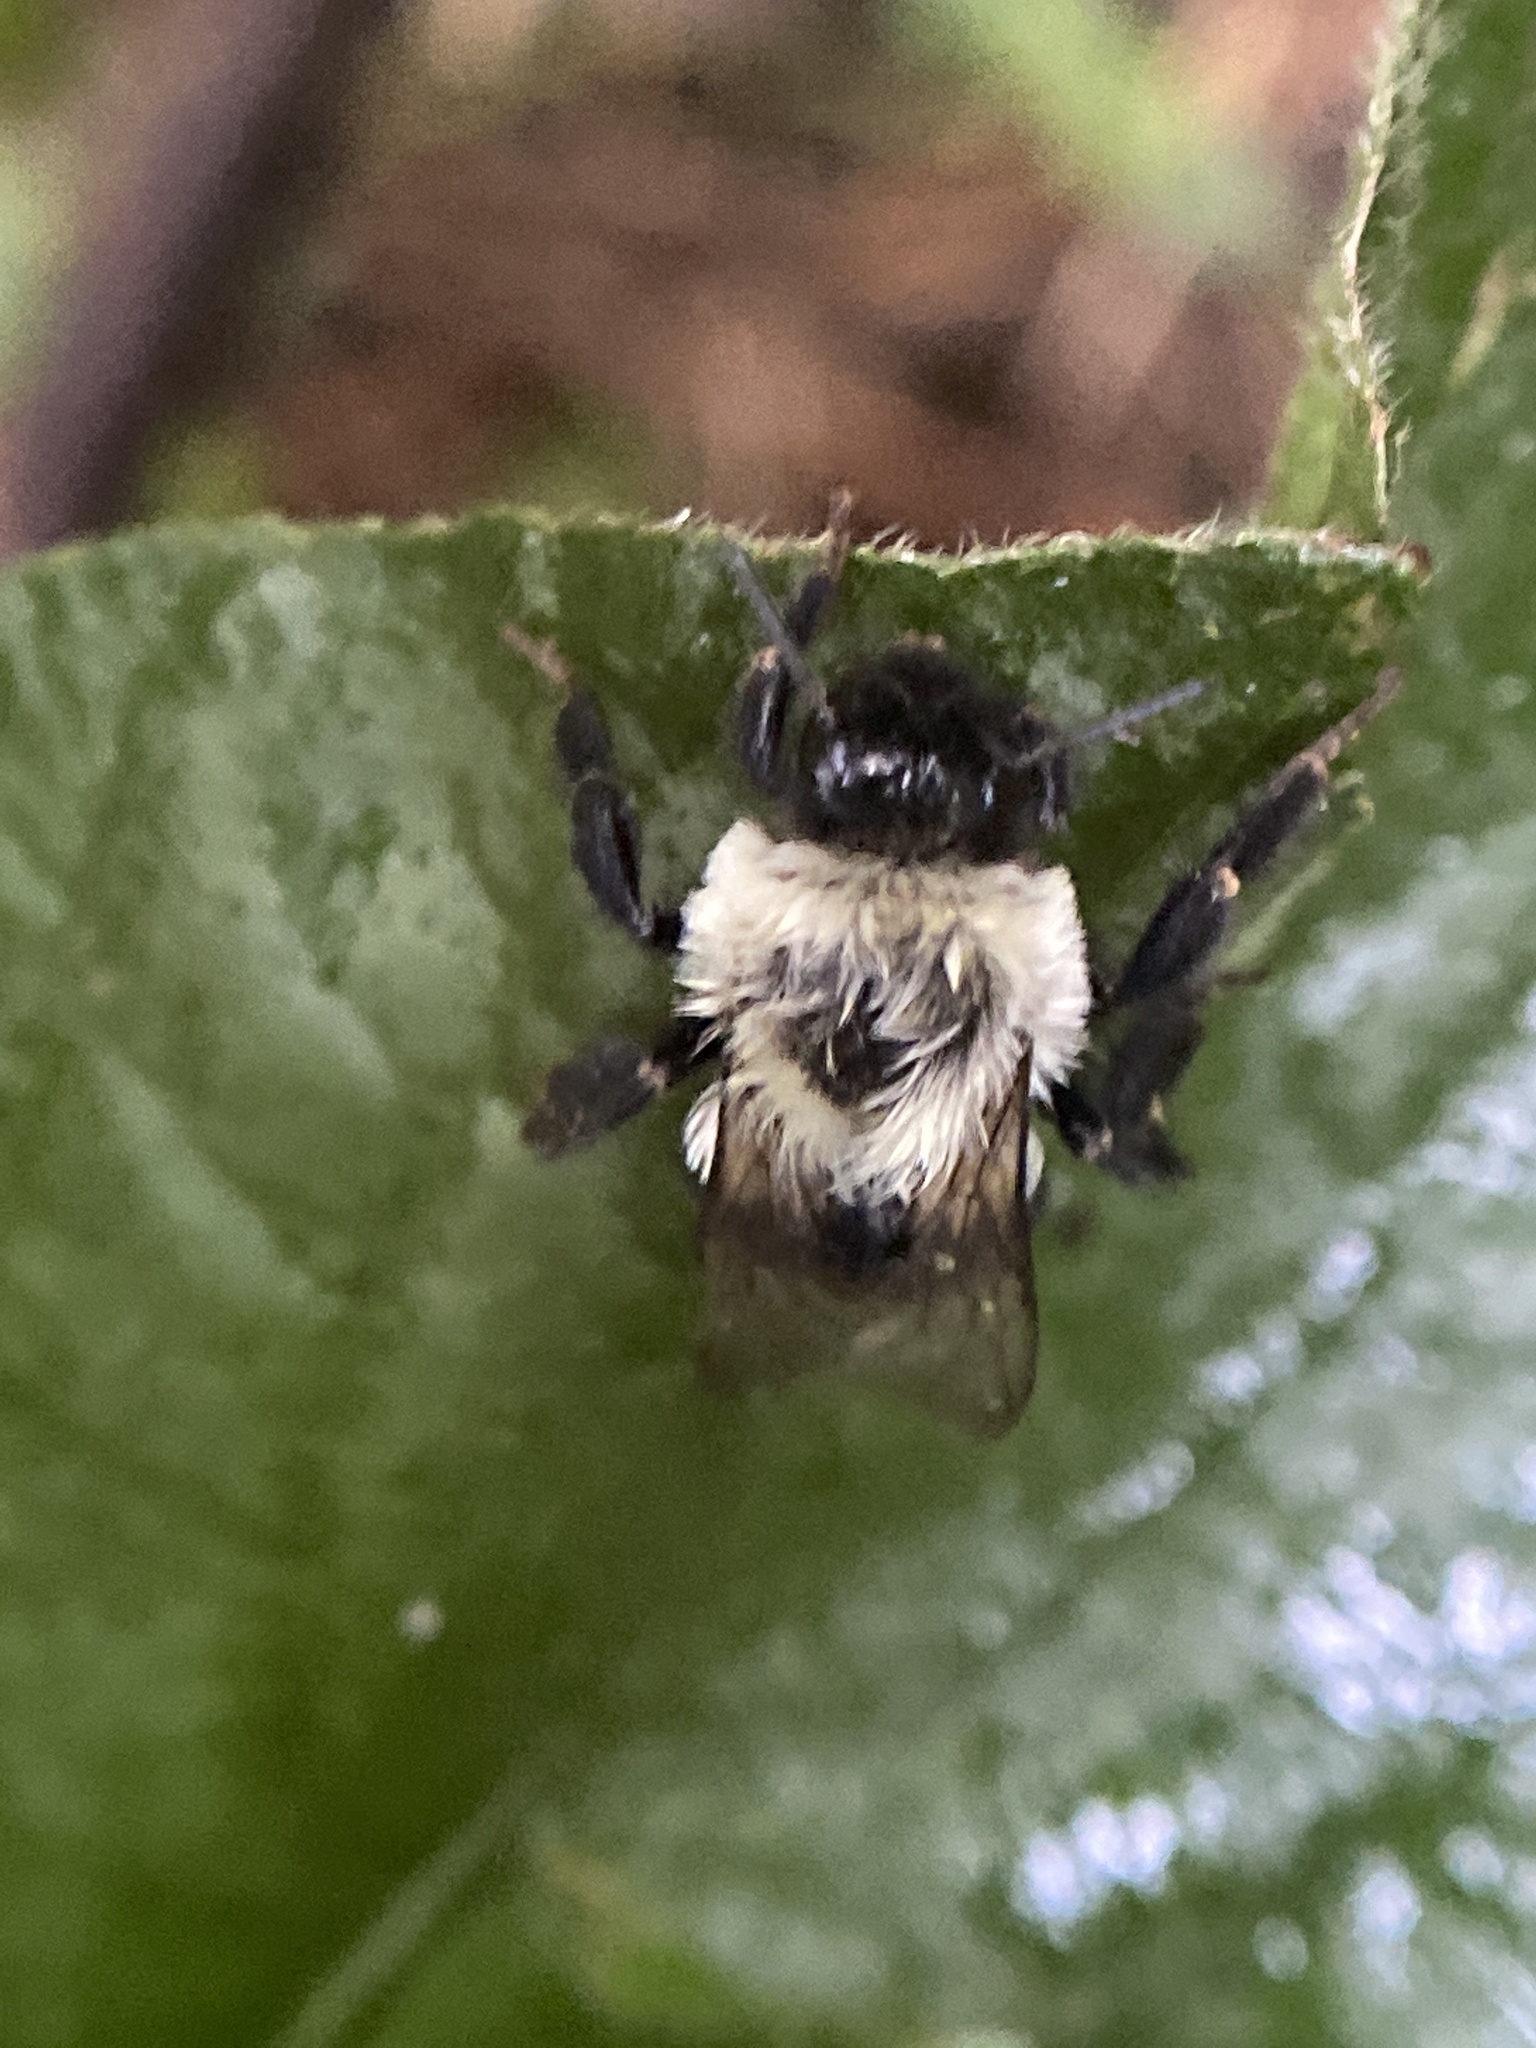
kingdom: Animalia
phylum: Arthropoda
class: Insecta
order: Hymenoptera
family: Apidae
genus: Bombus
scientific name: Bombus impatiens
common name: Common eastern bumble bee
